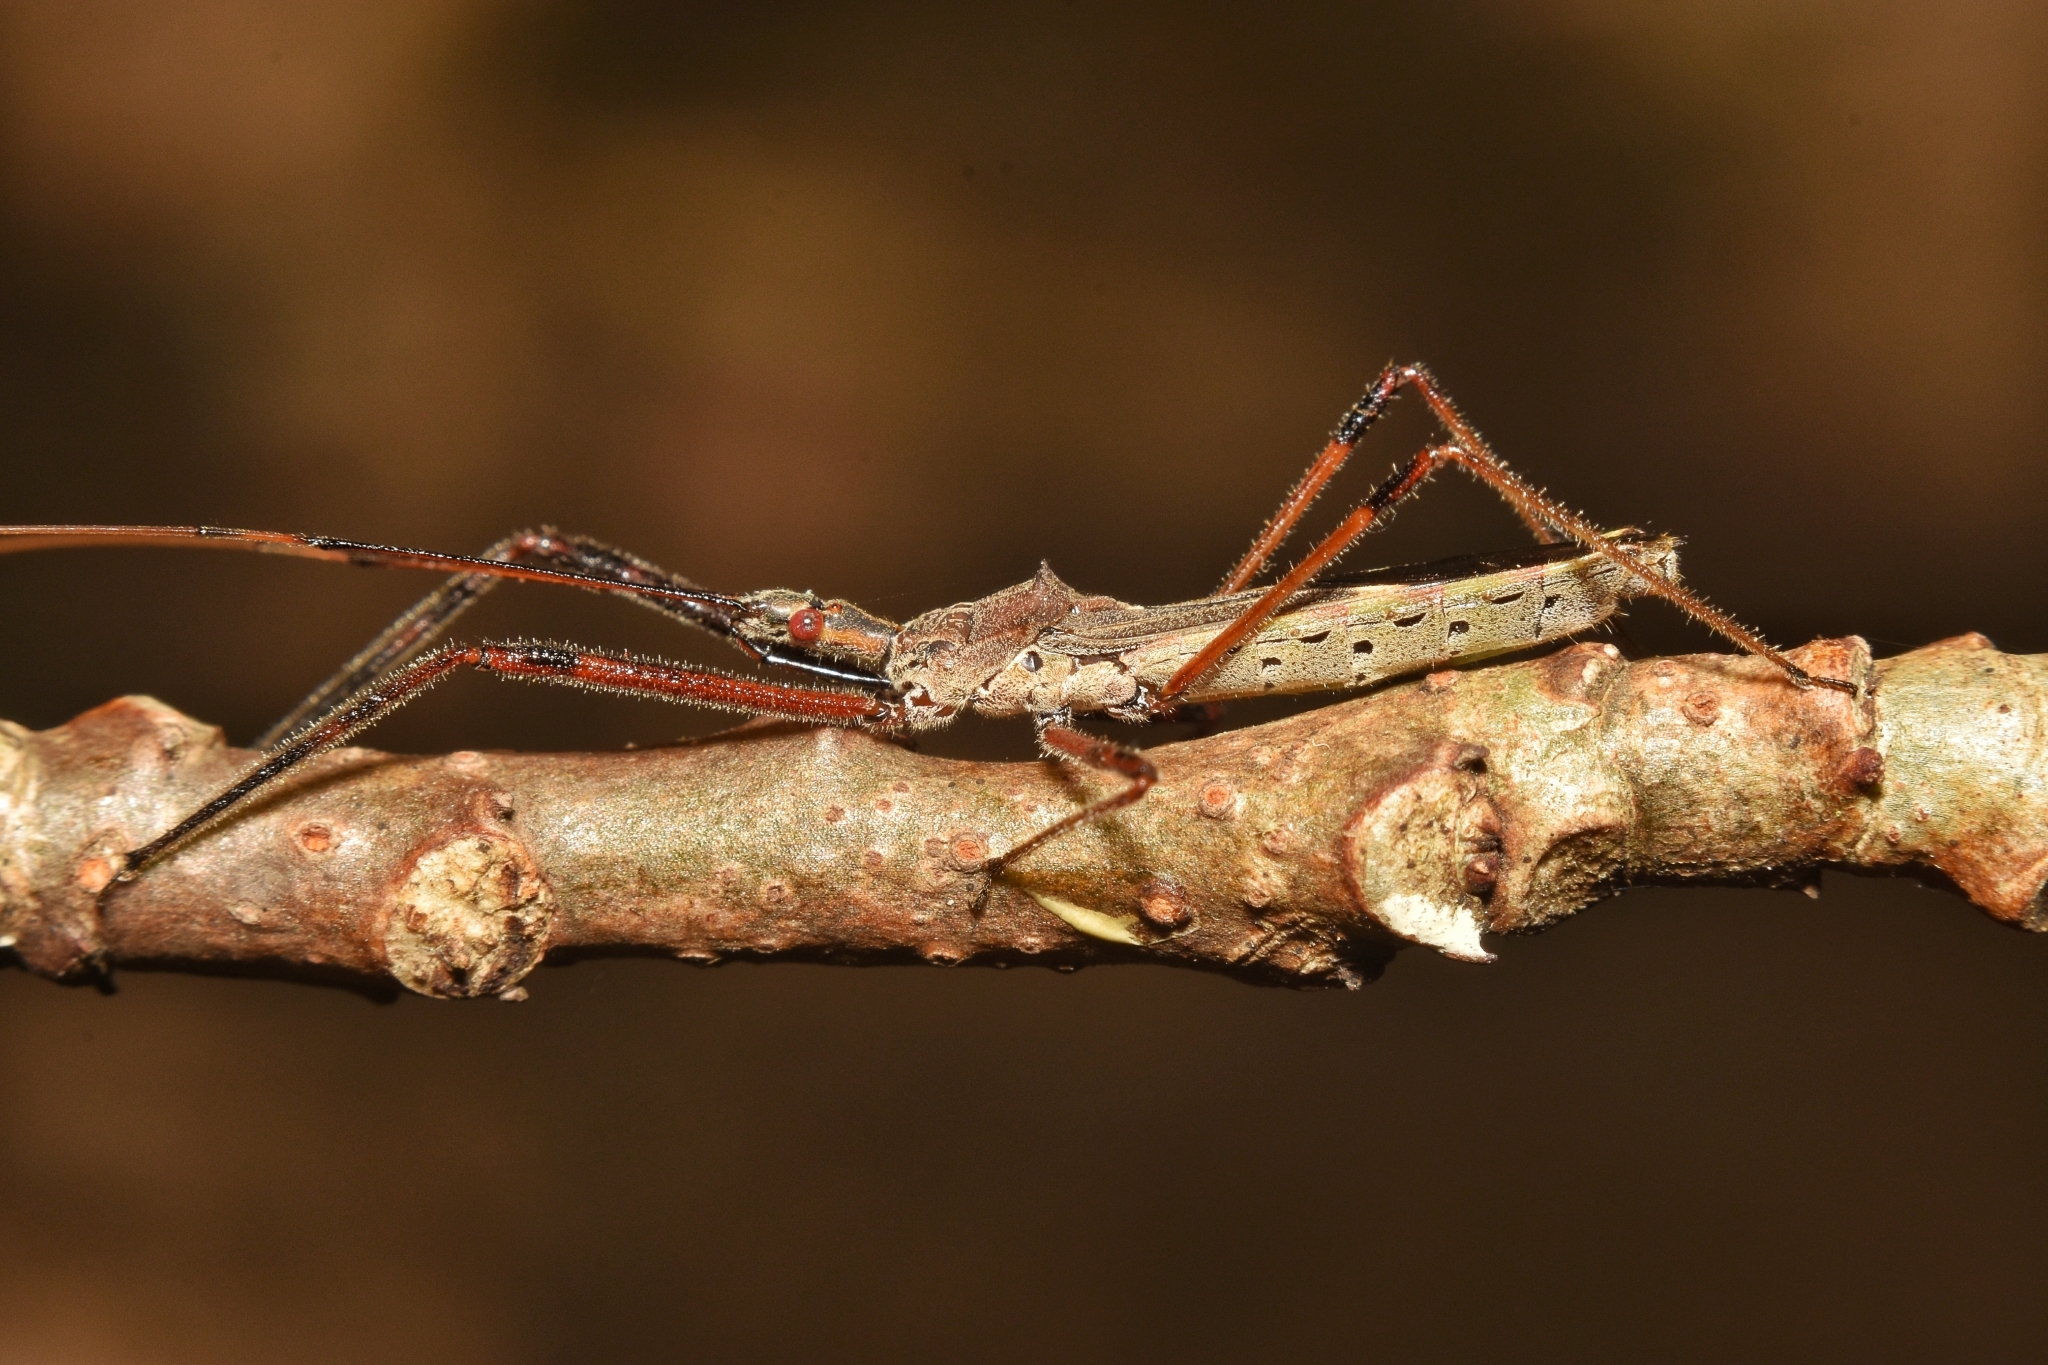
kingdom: Animalia
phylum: Arthropoda
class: Insecta
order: Hemiptera
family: Reduviidae
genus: Zelus
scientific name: Zelus tetracanthus
